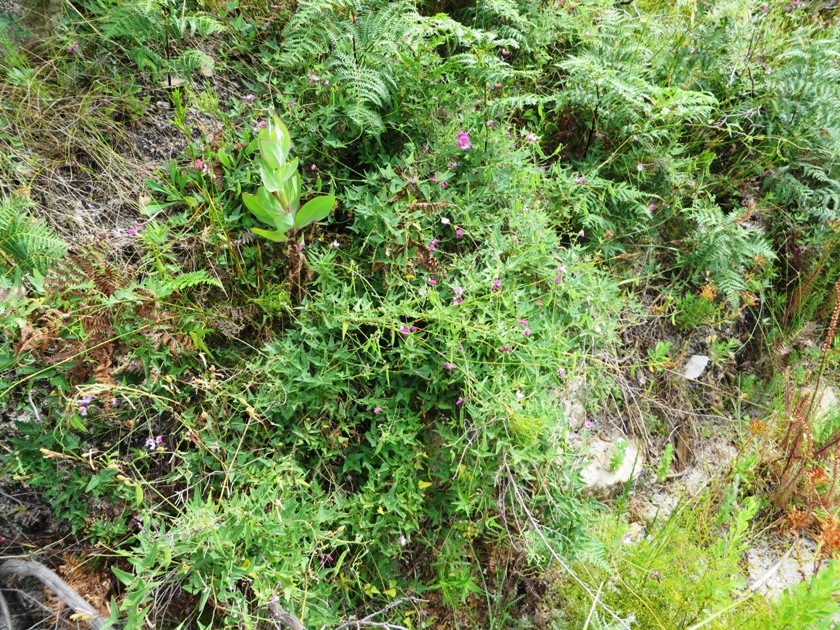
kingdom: Plantae
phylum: Tracheophyta
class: Magnoliopsida
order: Fabales
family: Fabaceae
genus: Dipogon
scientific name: Dipogon lignosus
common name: Okie bean
